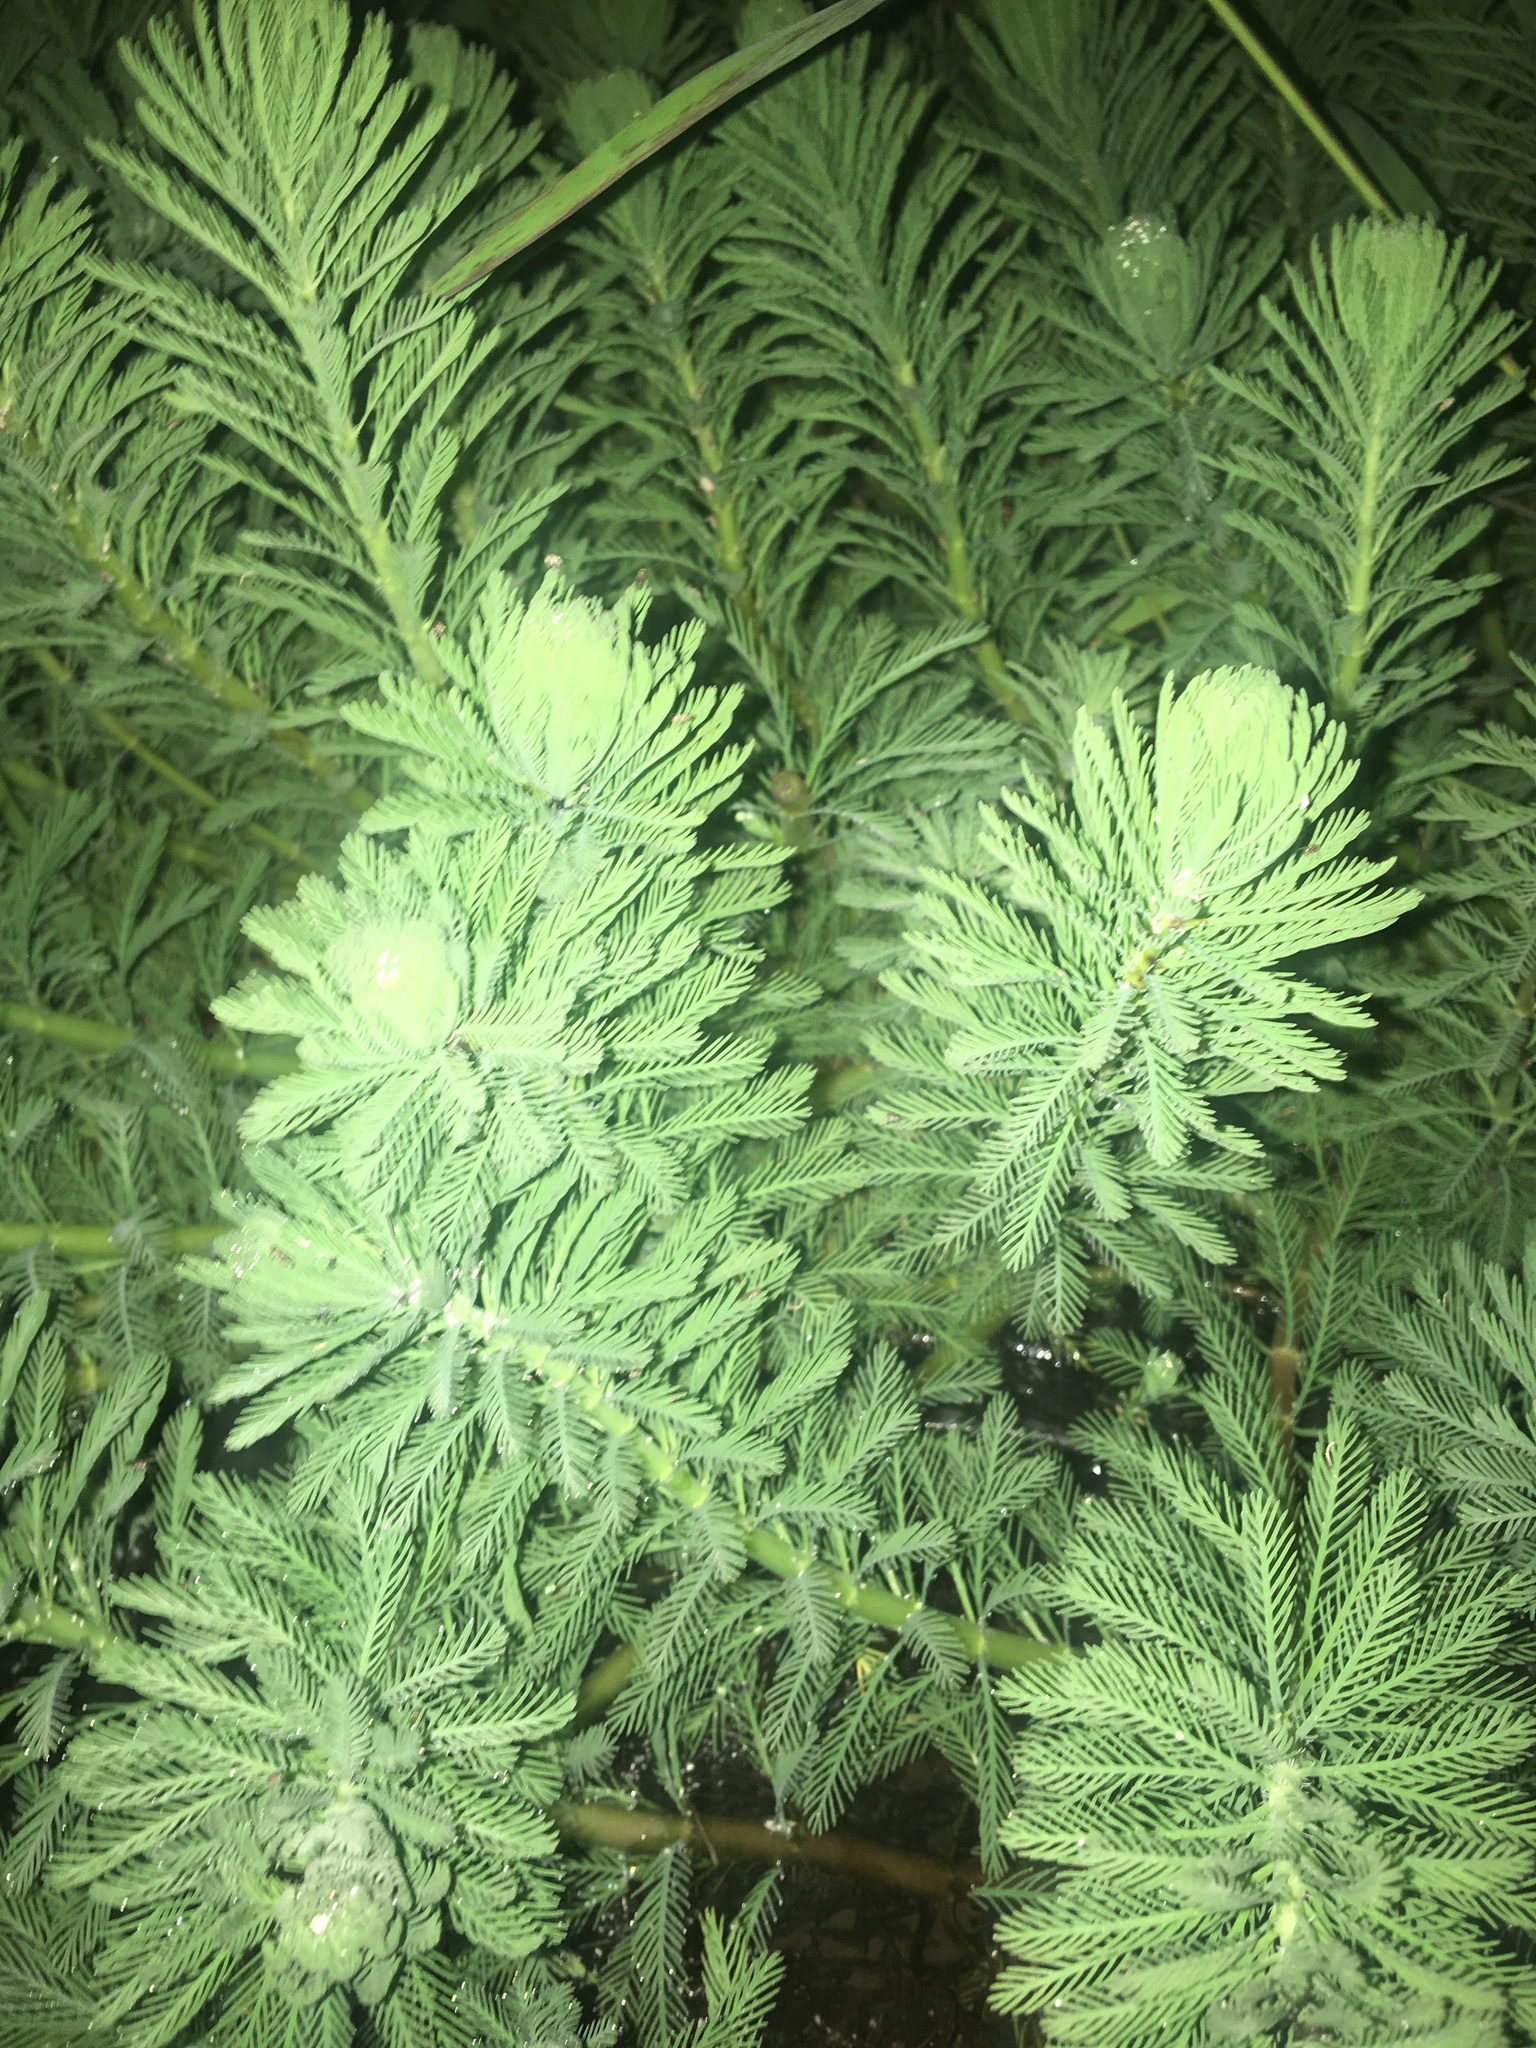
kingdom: Plantae
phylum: Tracheophyta
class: Magnoliopsida
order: Saxifragales
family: Haloragaceae
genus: Myriophyllum
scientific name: Myriophyllum aquaticum
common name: Parrot's feather
